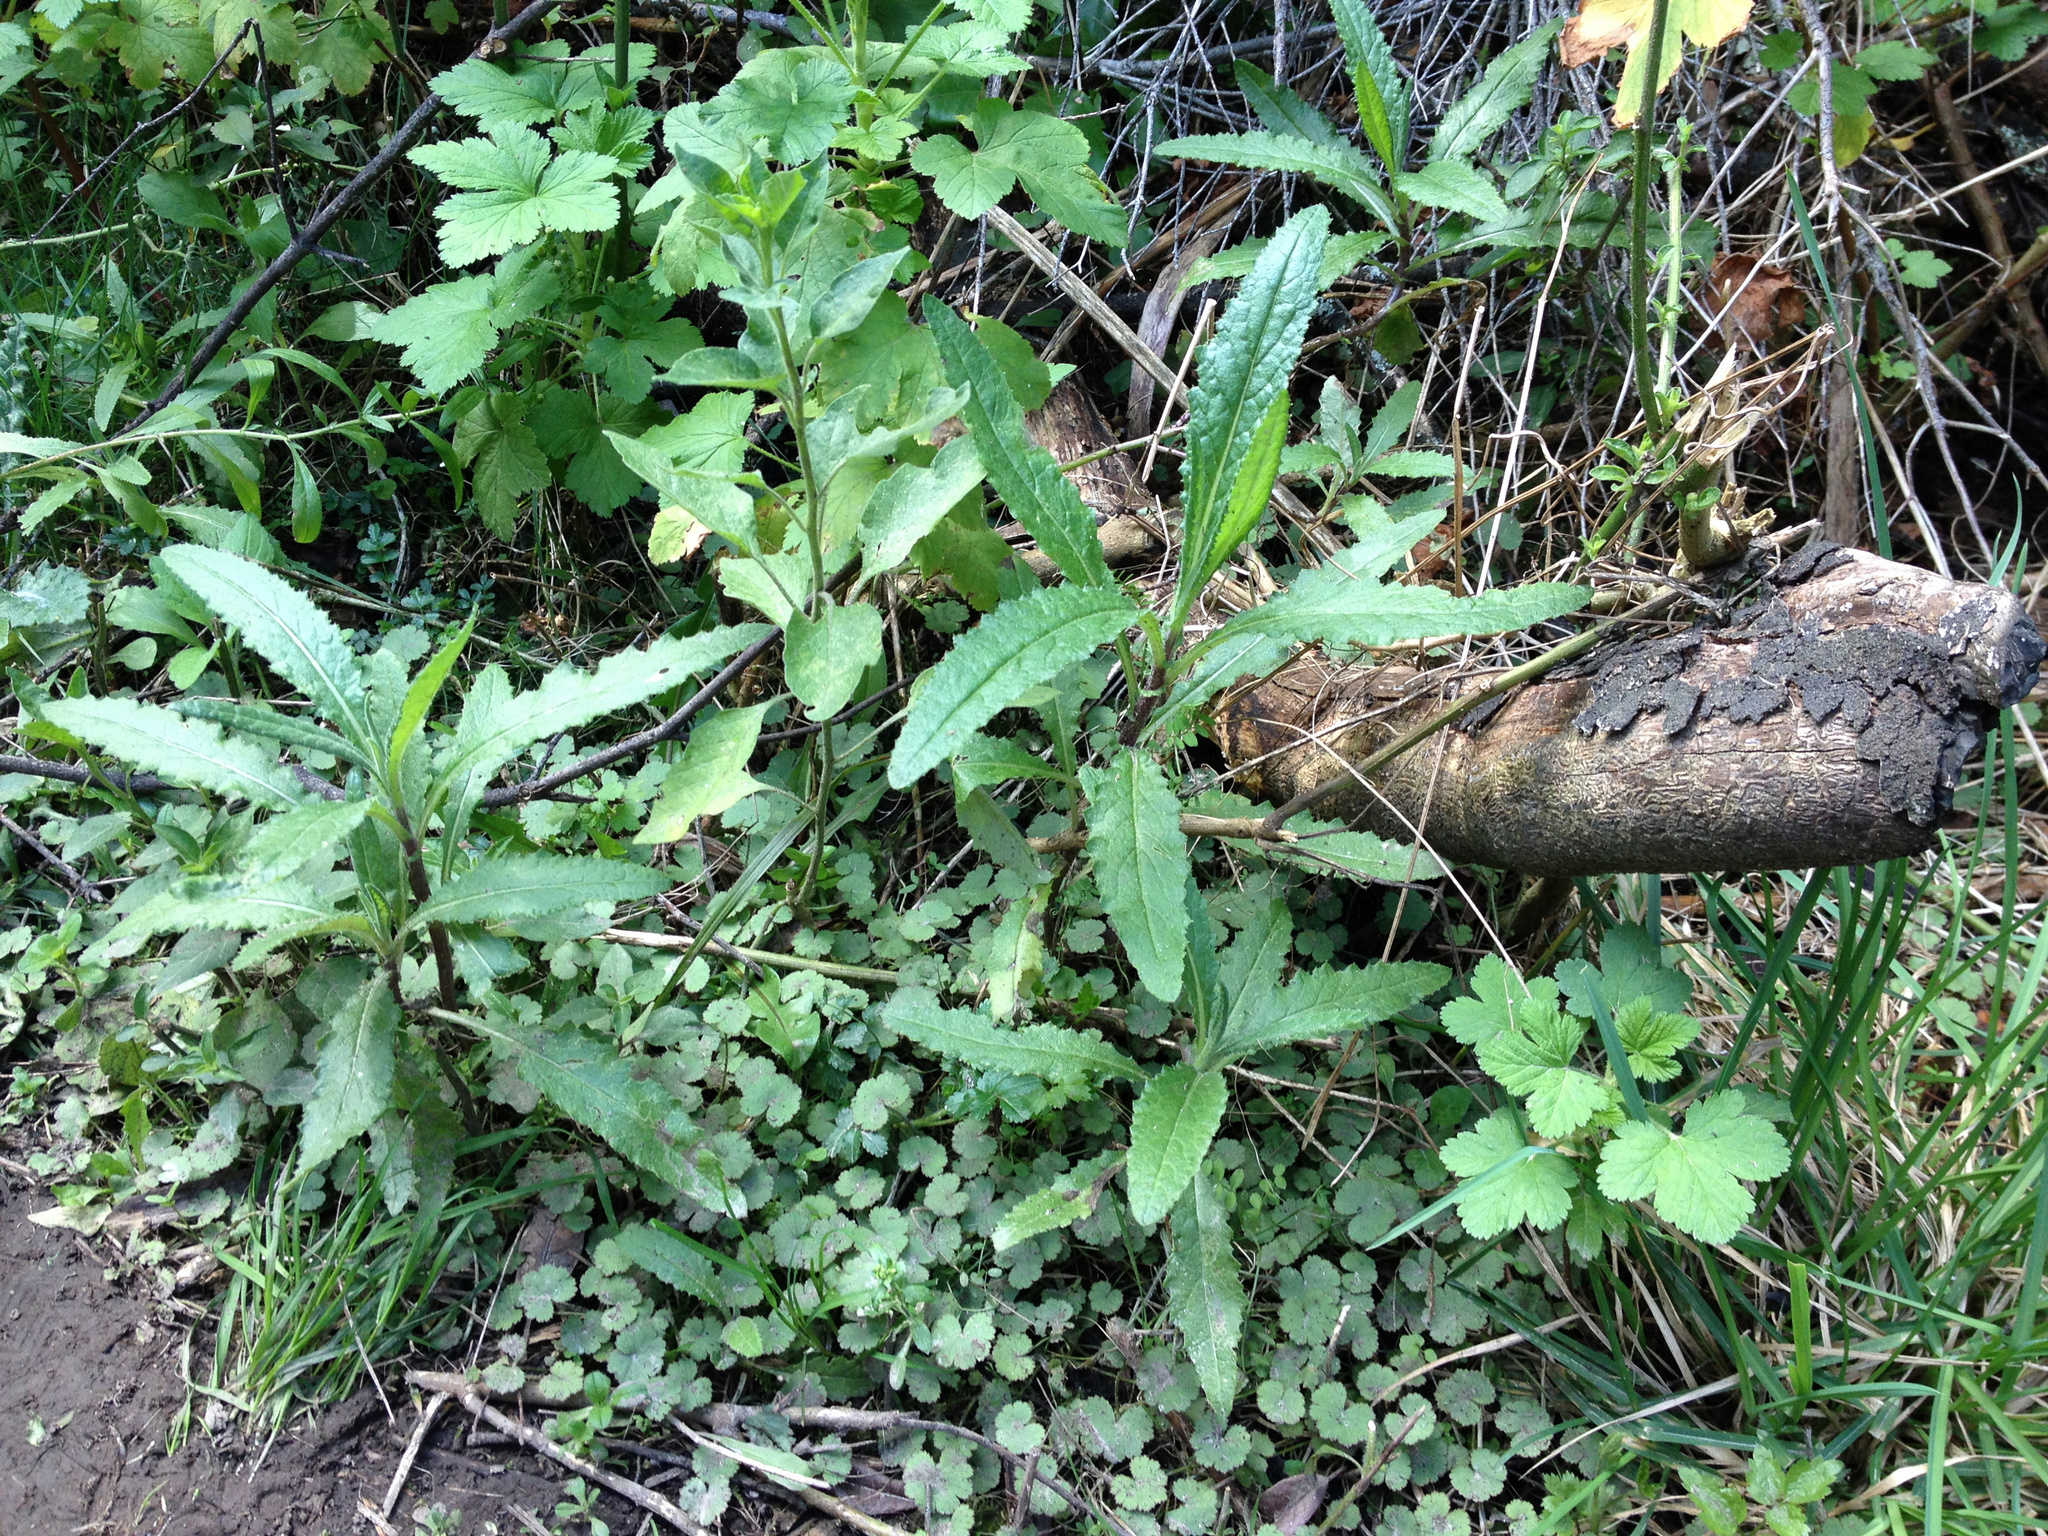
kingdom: Plantae
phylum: Tracheophyta
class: Magnoliopsida
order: Asterales
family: Asteraceae
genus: Senecio
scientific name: Senecio minimus
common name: Toothed fireweed
